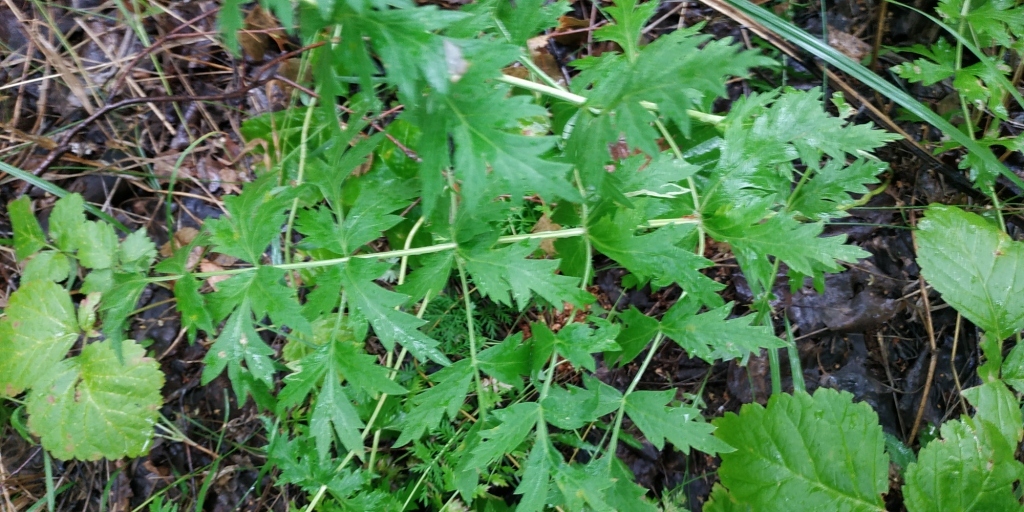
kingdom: Plantae
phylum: Tracheophyta
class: Magnoliopsida
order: Apiales
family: Apiaceae
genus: Seseli
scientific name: Seseli libanotis
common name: Mooncarrot
